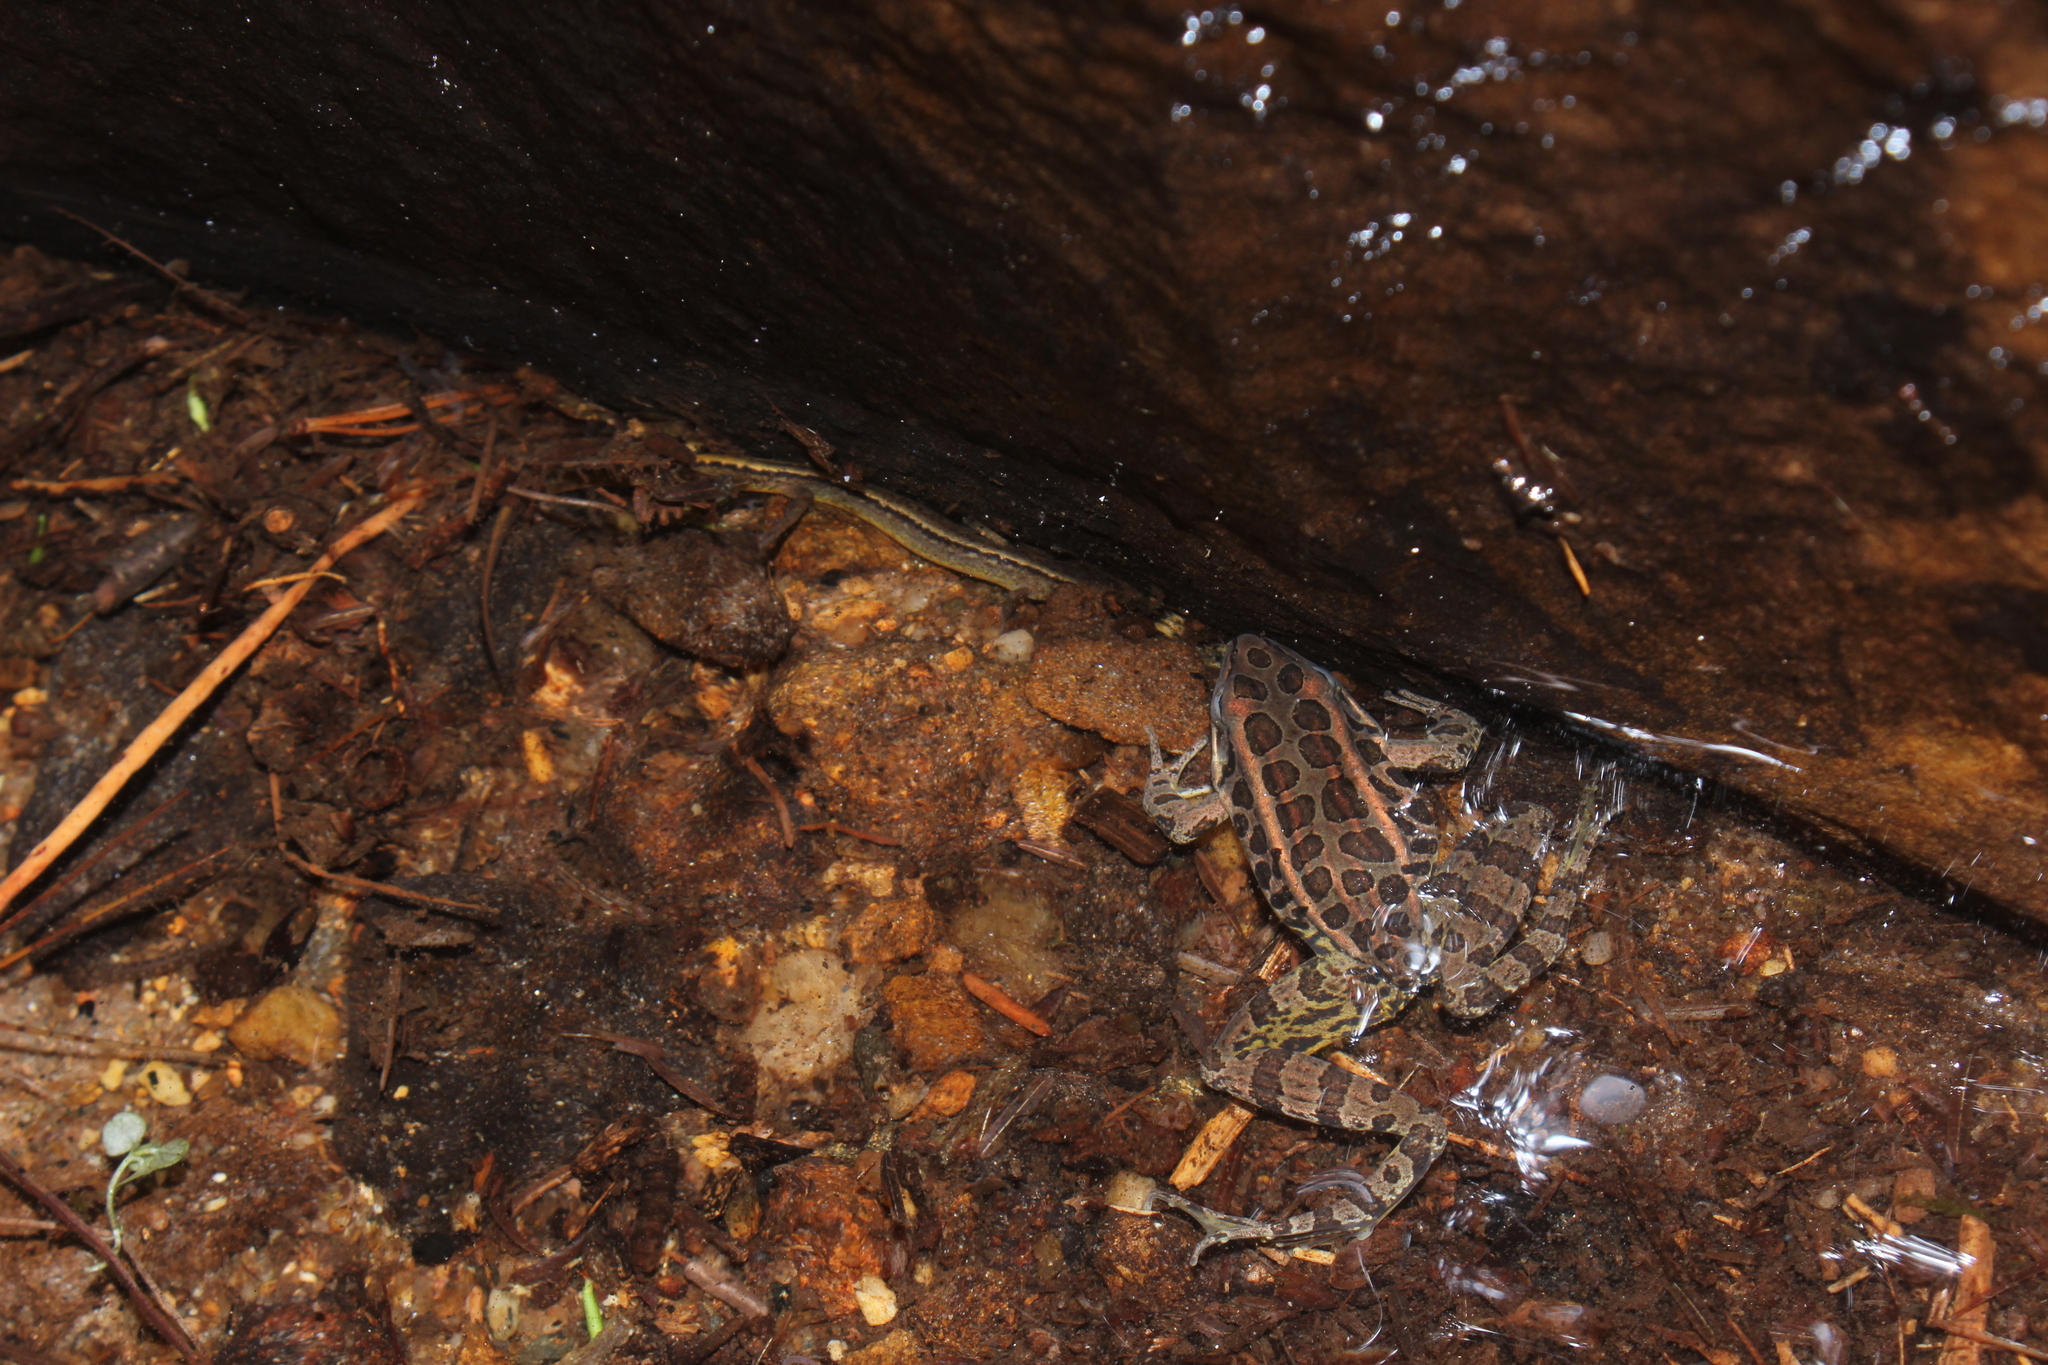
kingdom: Animalia
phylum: Chordata
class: Amphibia
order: Anura
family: Ranidae
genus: Lithobates
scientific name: Lithobates palustris
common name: Pickerel frog
